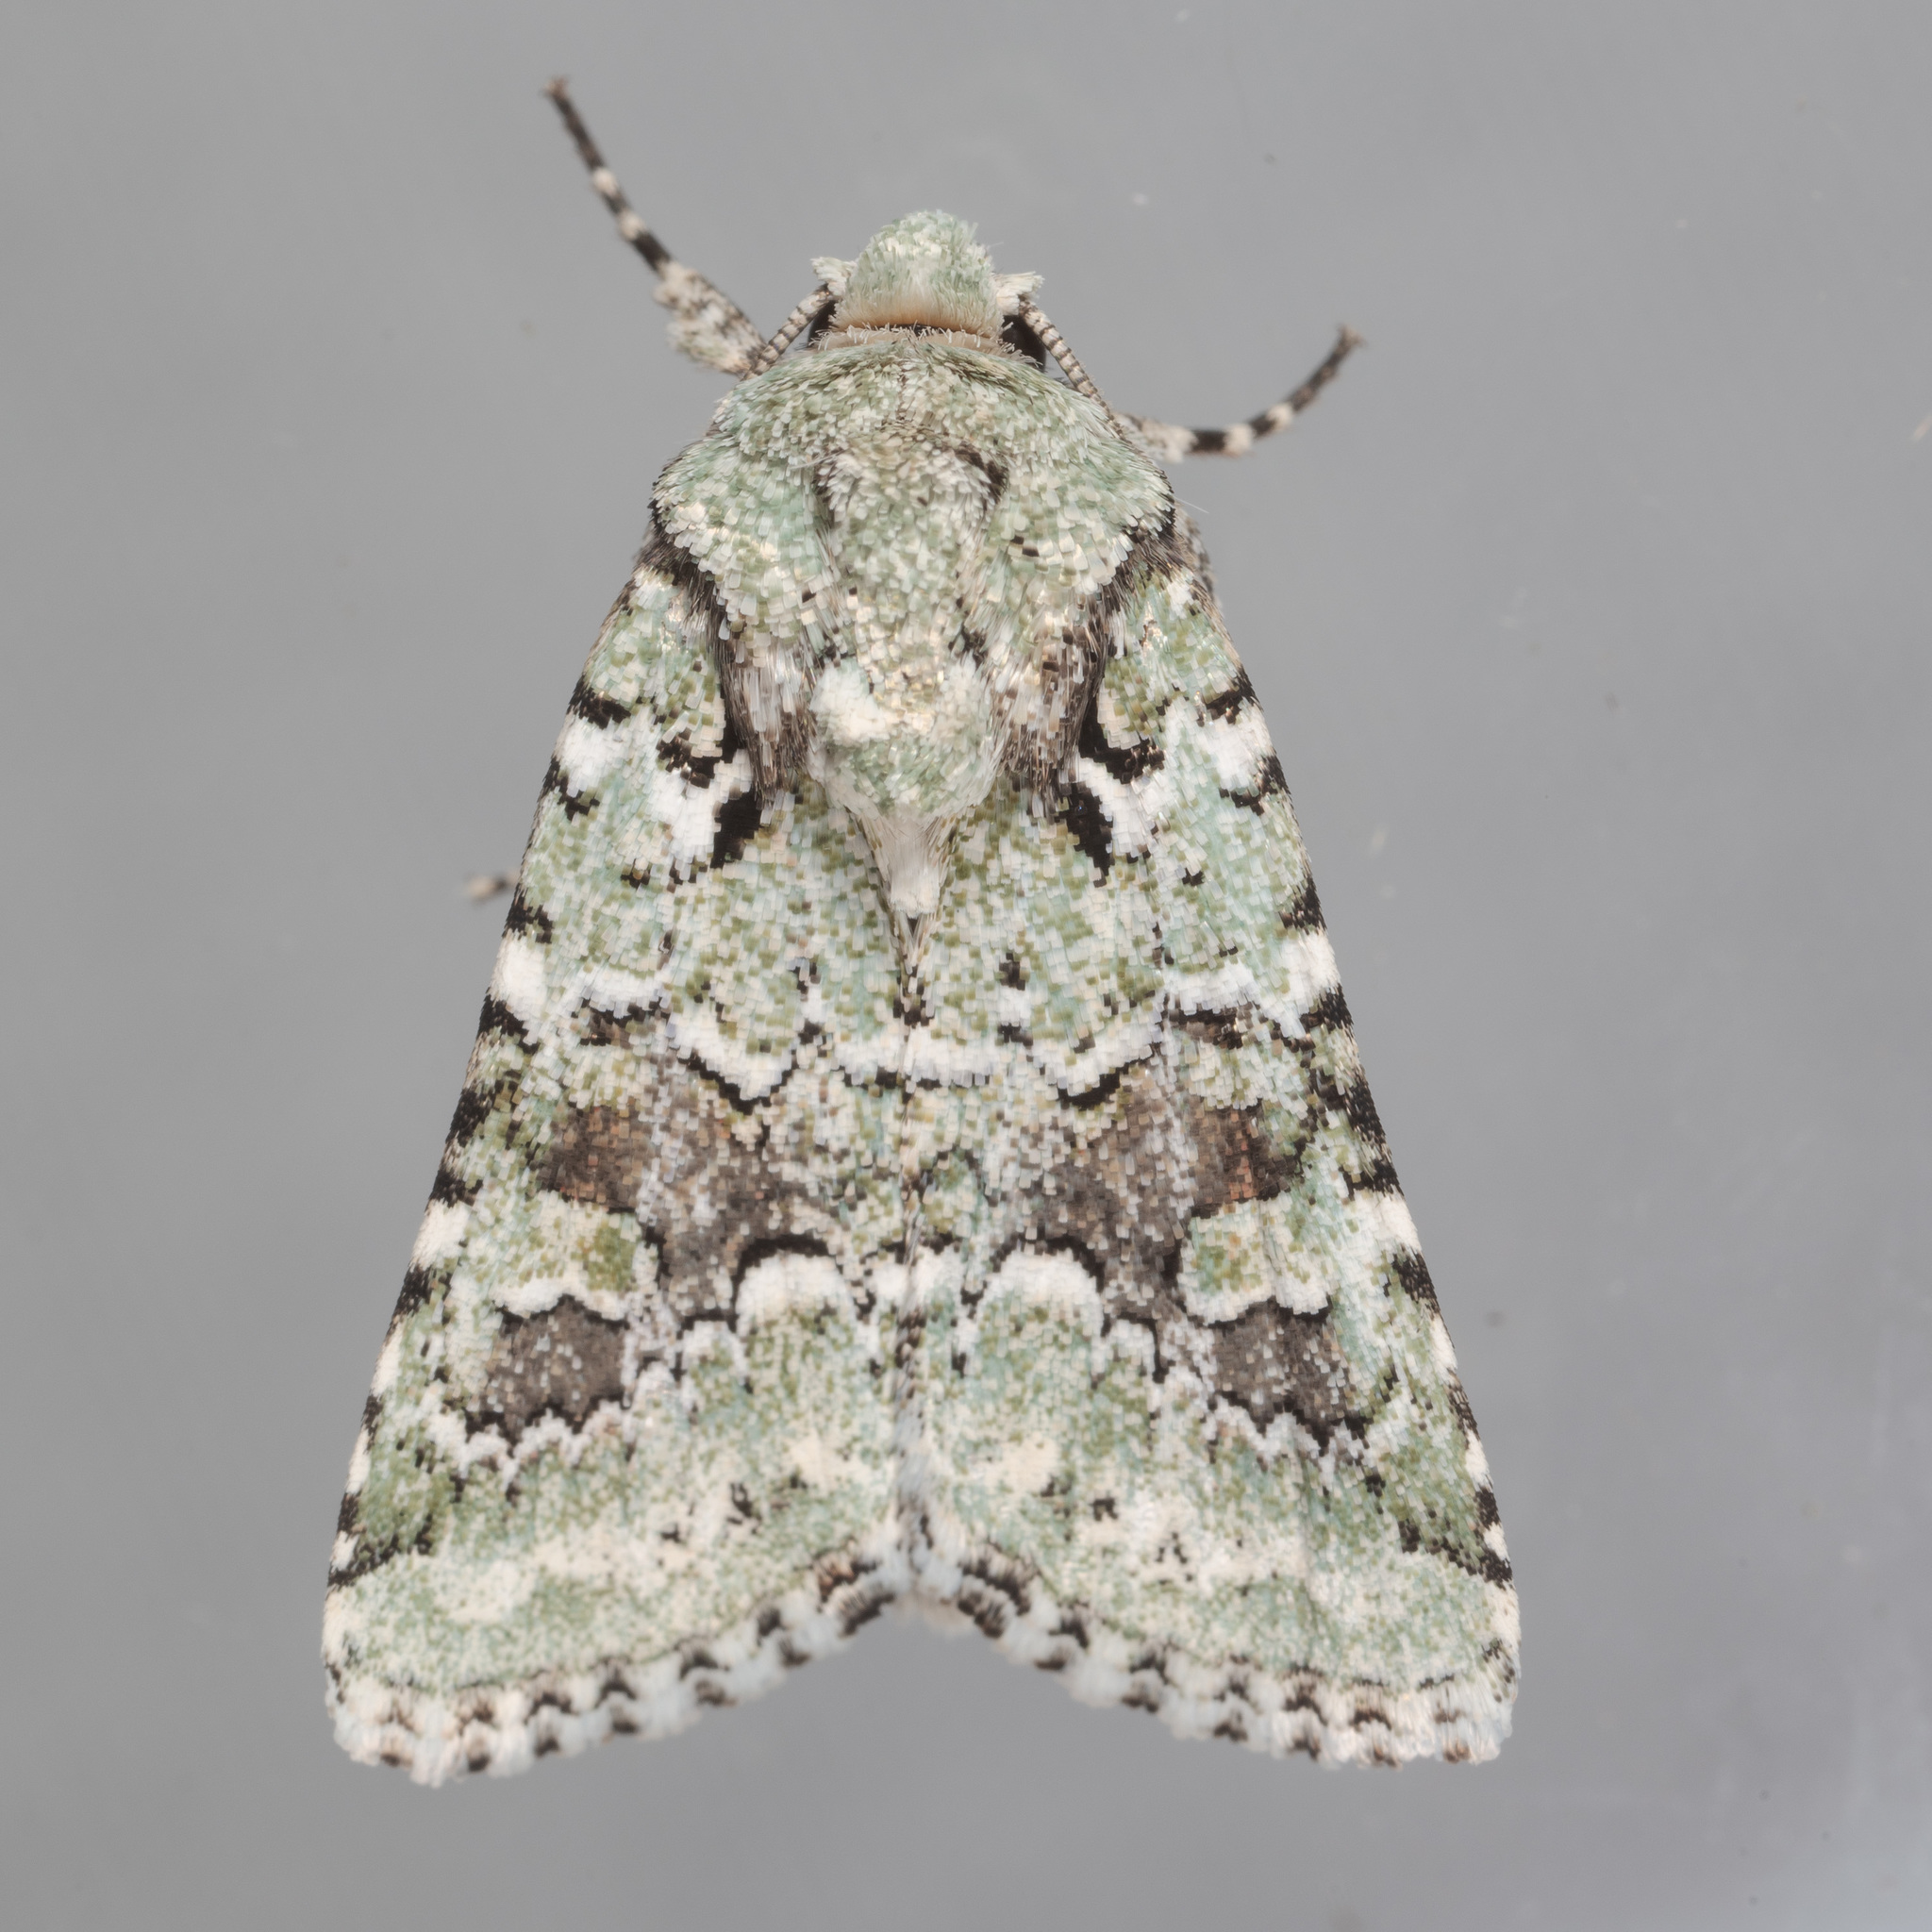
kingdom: Animalia
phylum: Arthropoda
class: Insecta
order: Lepidoptera
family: Noctuidae
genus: Lacinipolia
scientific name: Lacinipolia laudabilis
